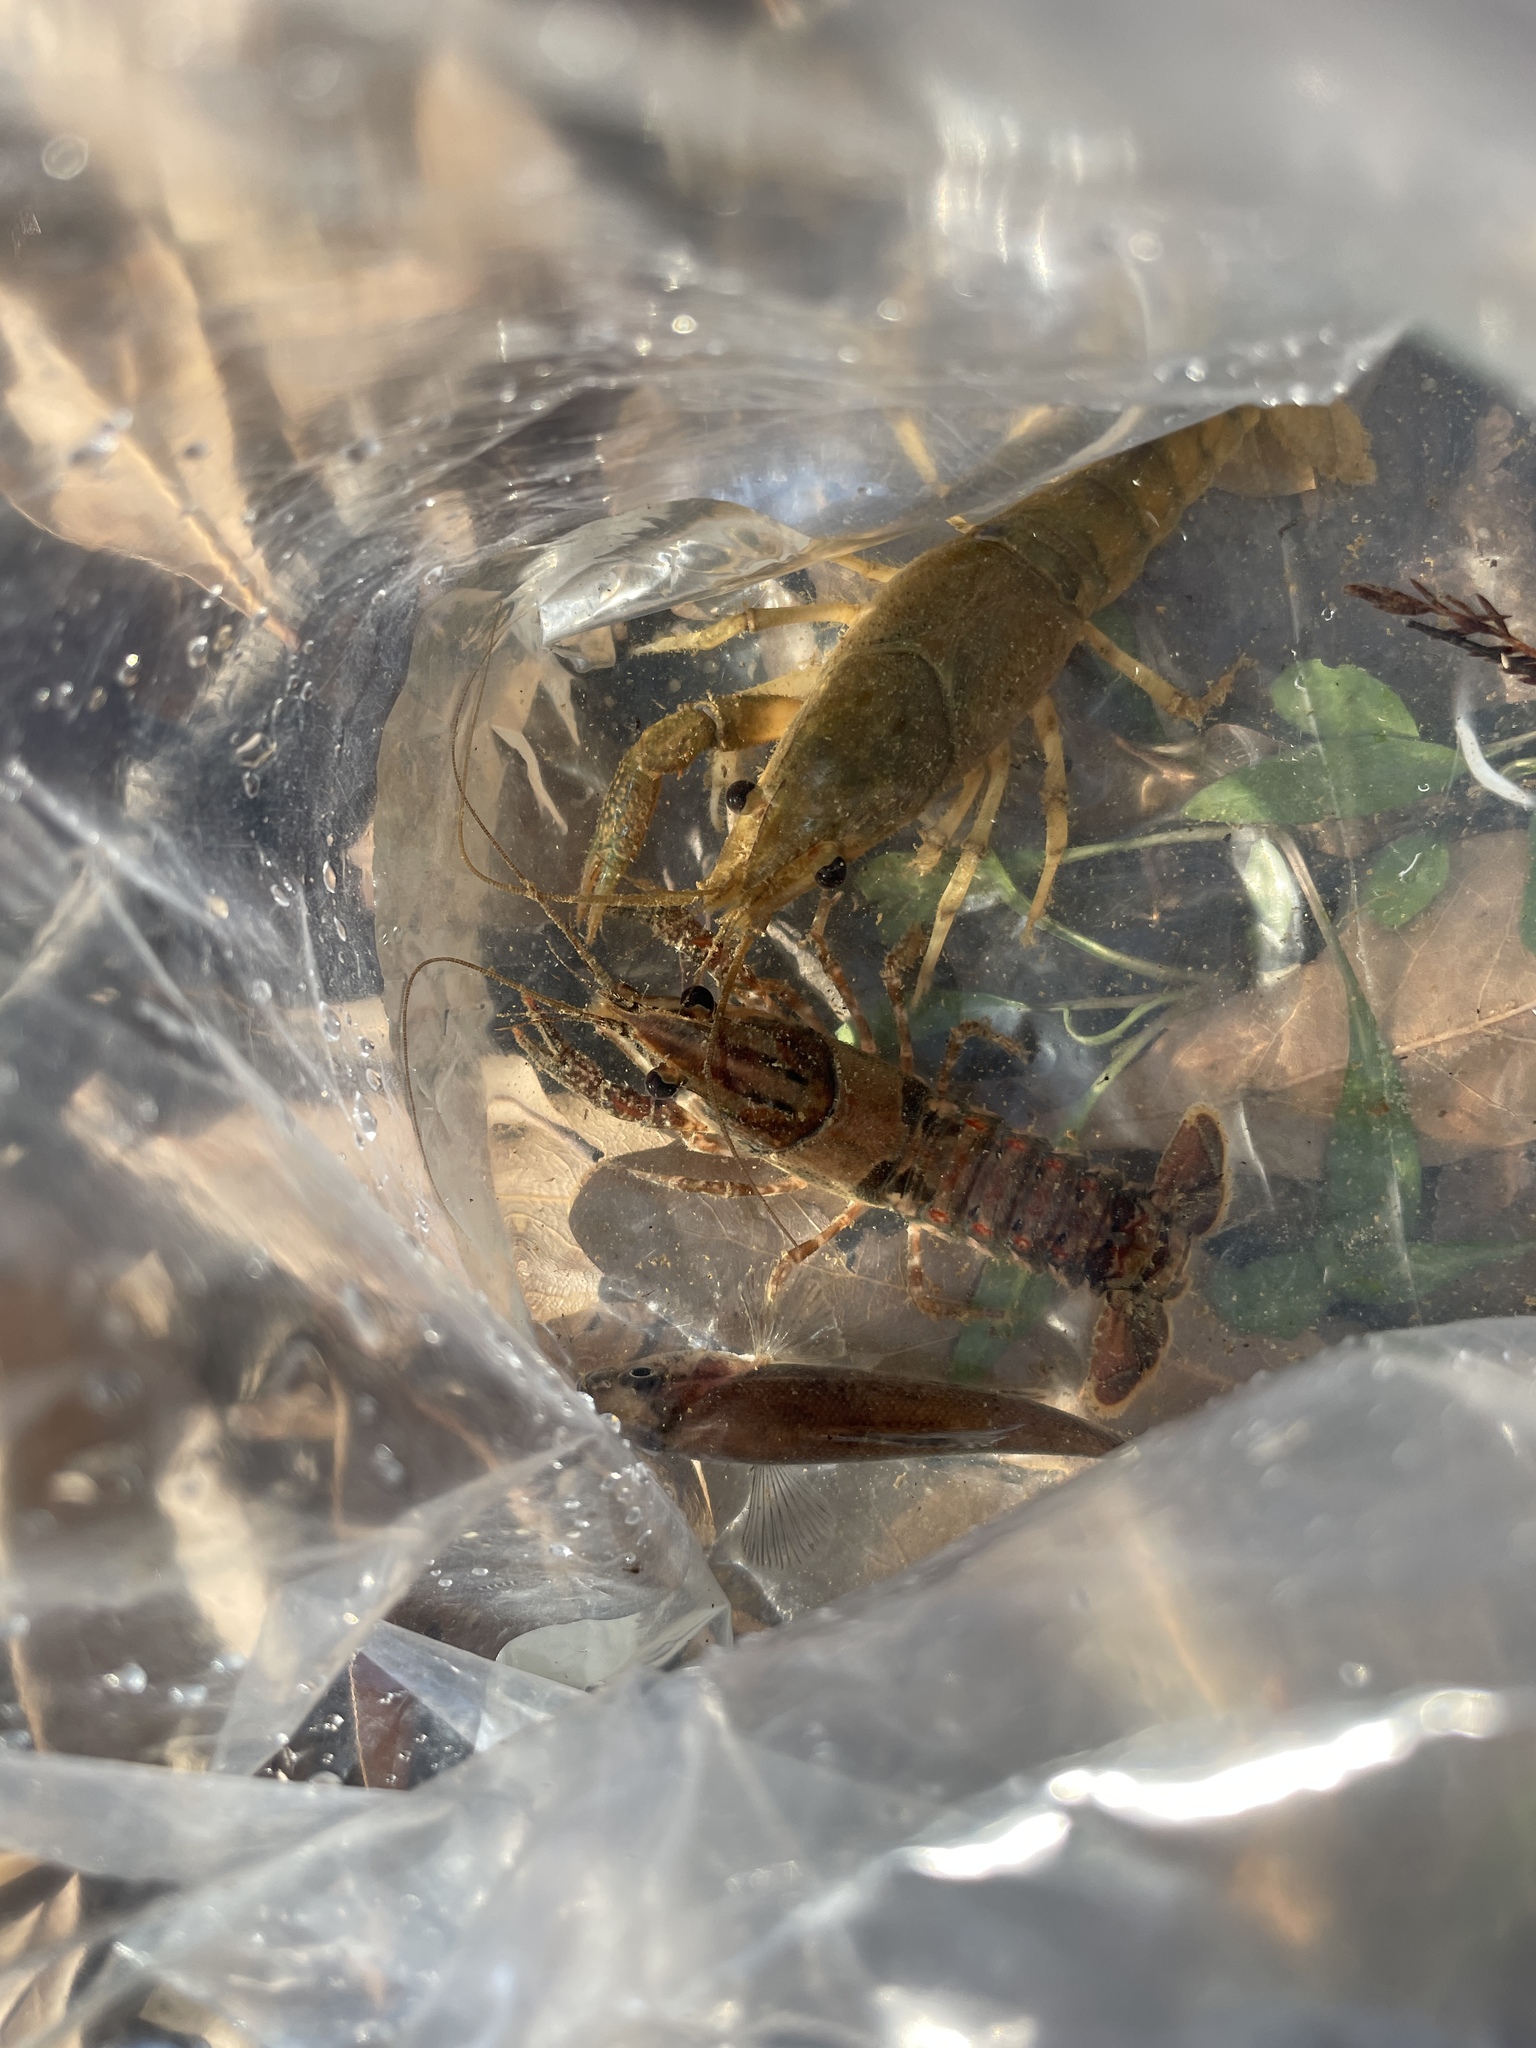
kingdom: Animalia
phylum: Arthropoda
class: Malacostraca
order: Decapoda
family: Cambaridae
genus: Procambarus
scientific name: Procambarus spiculifer
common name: White tubercled crayfish
